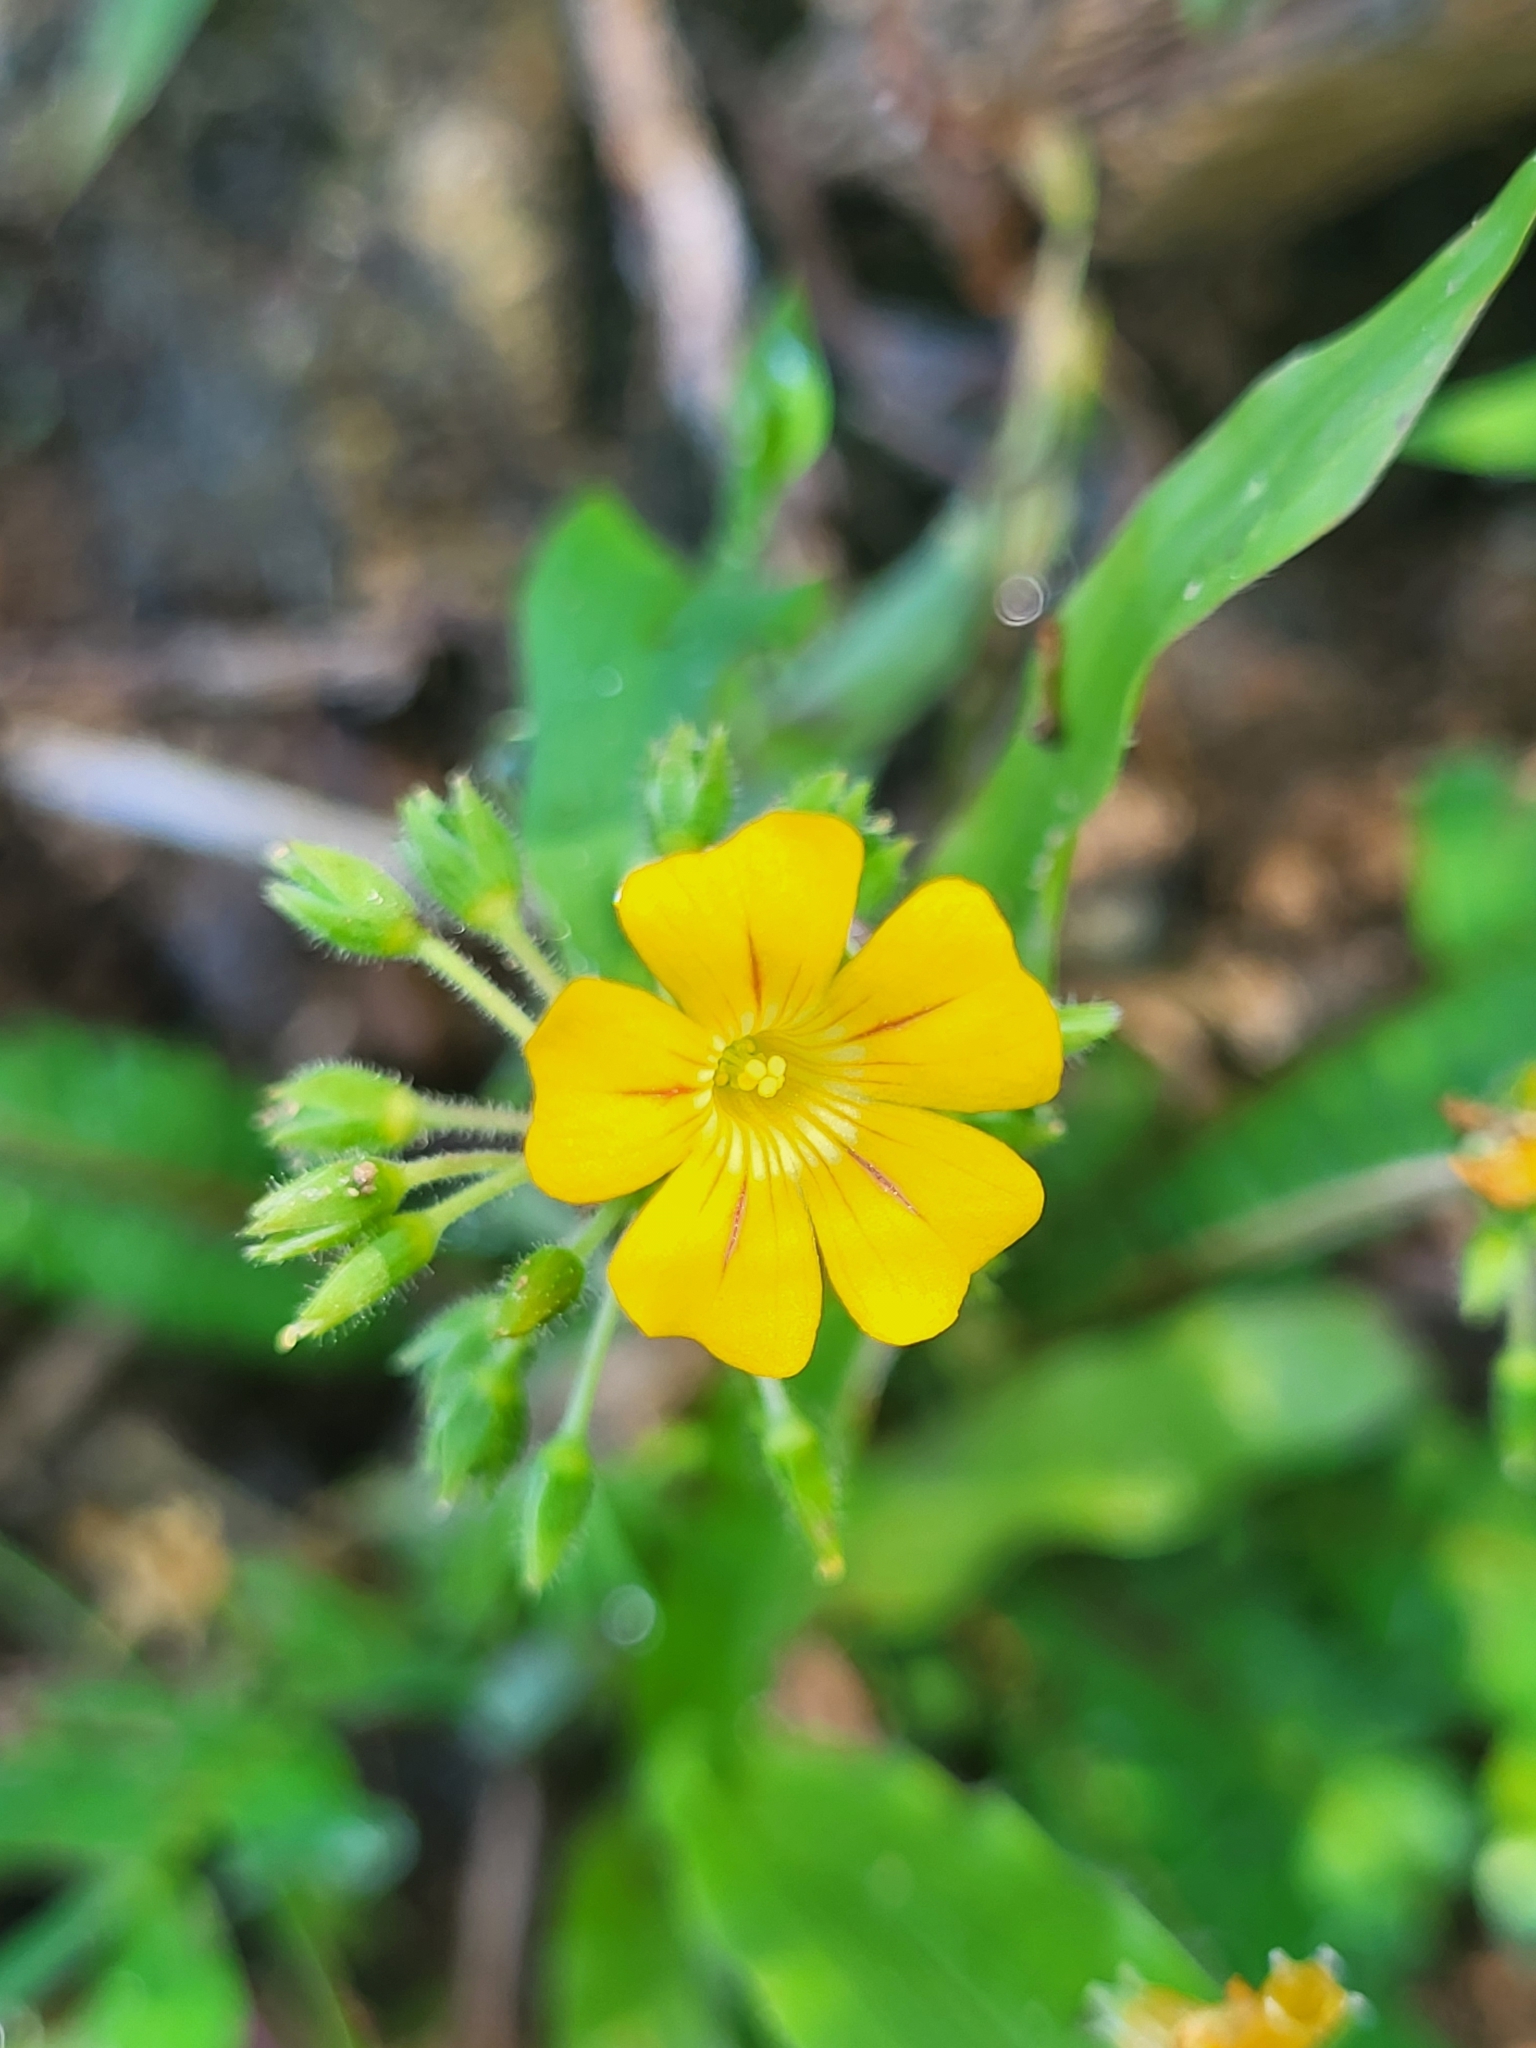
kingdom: Plantae
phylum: Tracheophyta
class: Magnoliopsida
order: Oxalidales
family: Oxalidaceae
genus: Biophytum
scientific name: Biophytum sensitivum
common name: Lifeplant
